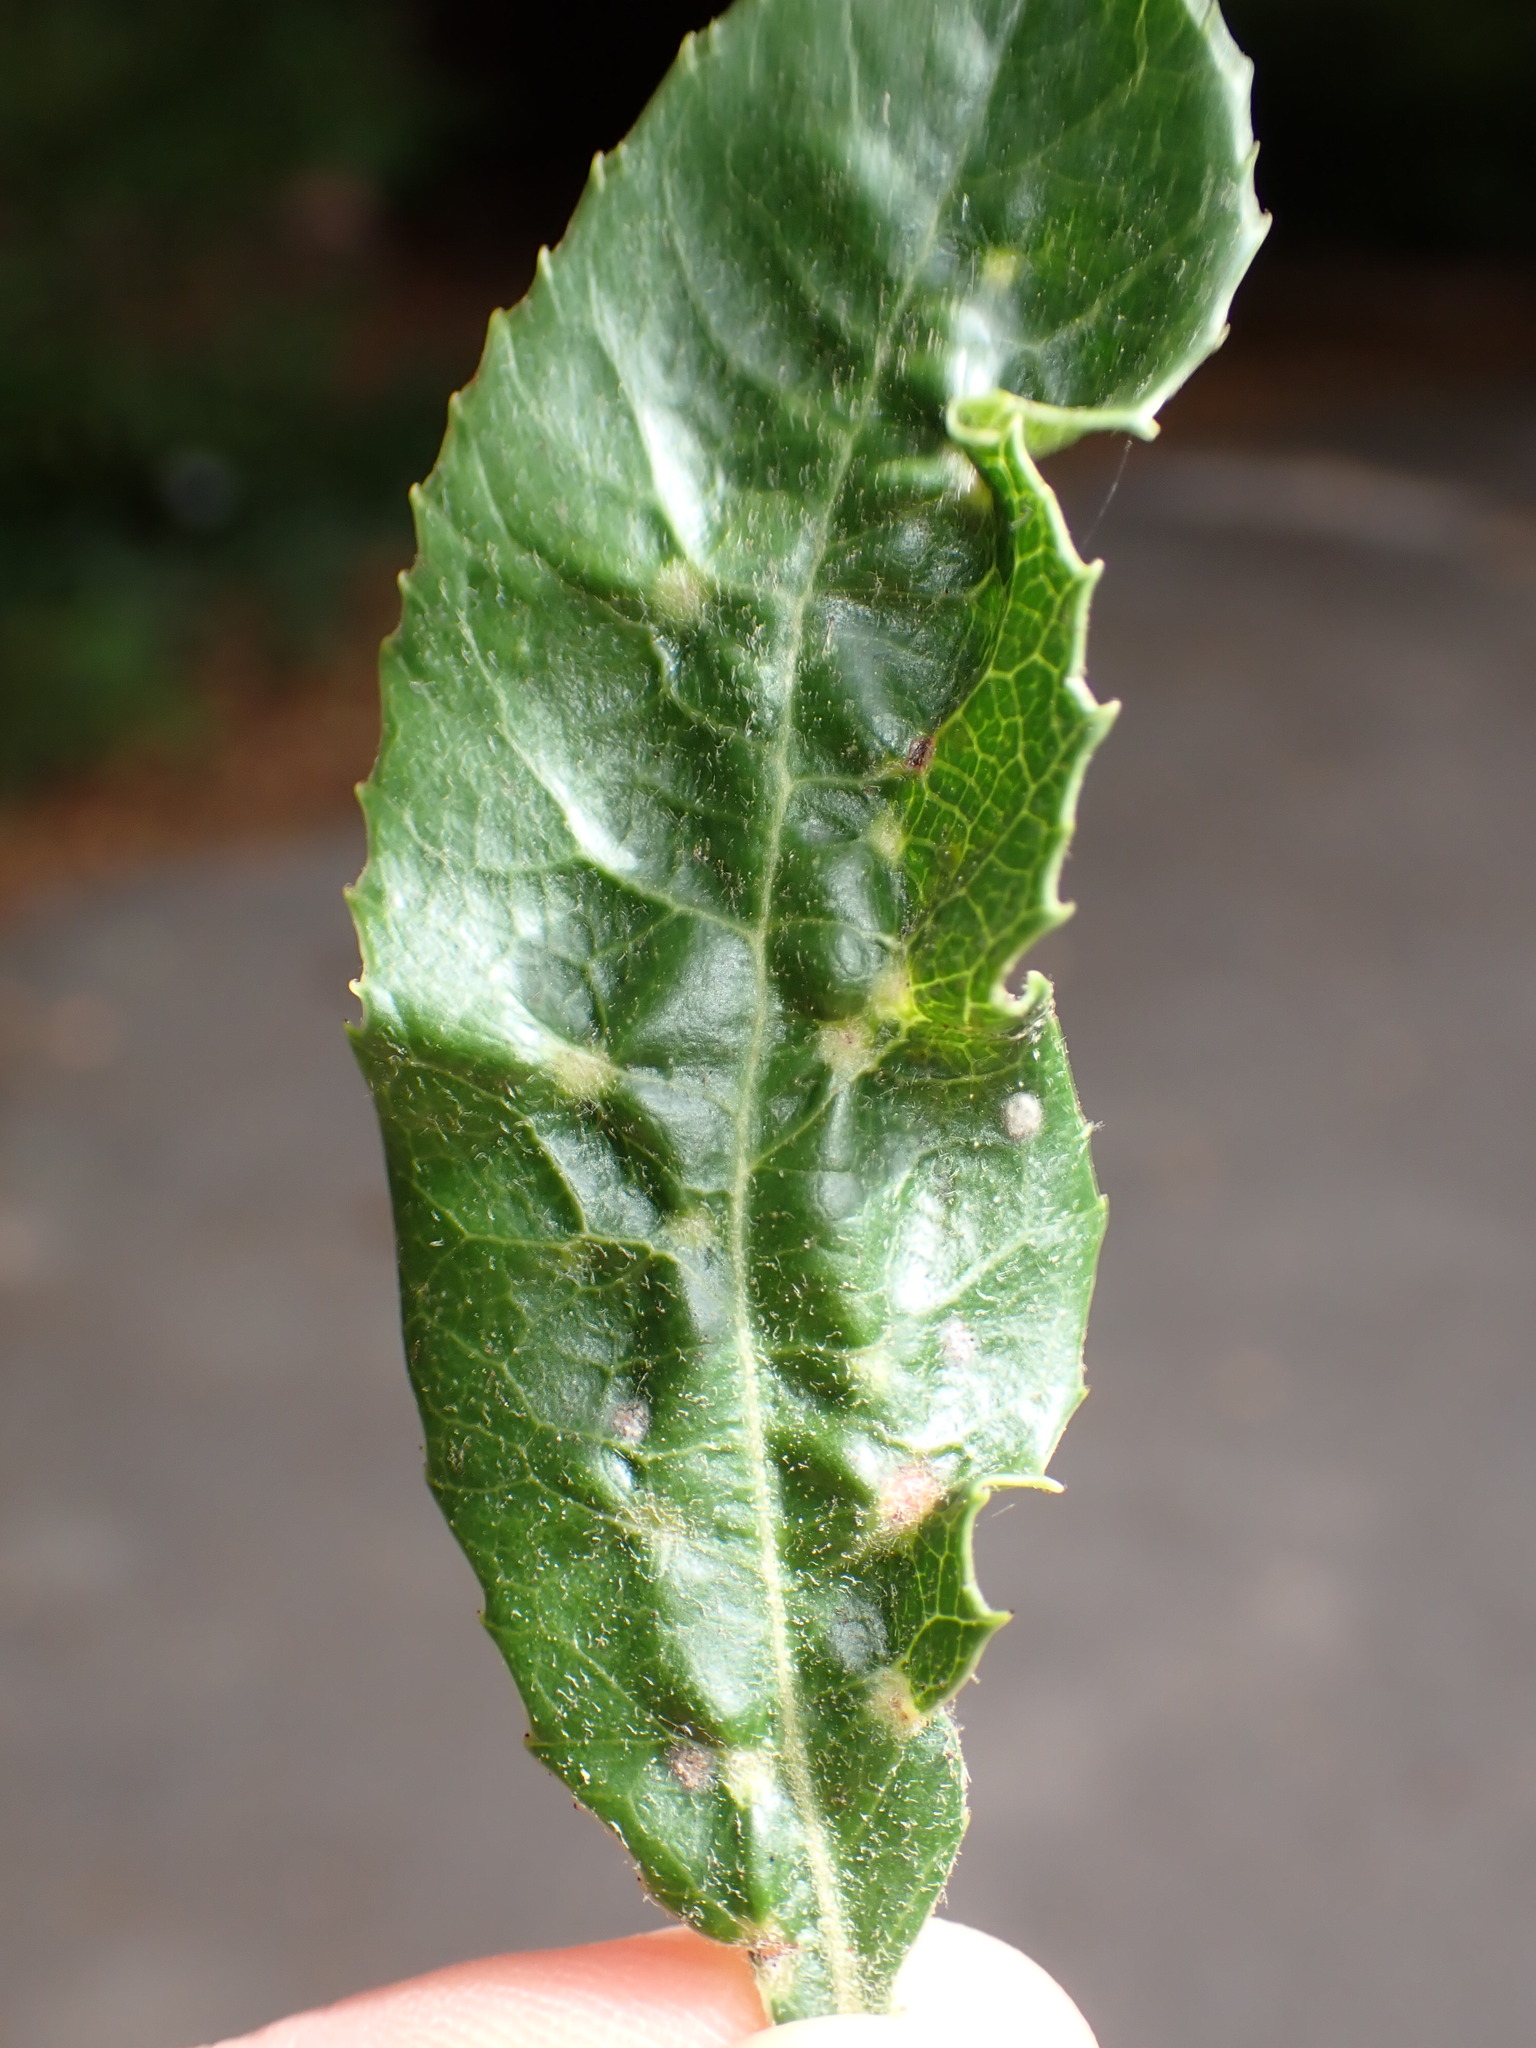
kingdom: Animalia
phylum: Arthropoda
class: Insecta
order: Thysanoptera
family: Phlaeothripidae
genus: Liothrips
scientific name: Liothrips ilex
